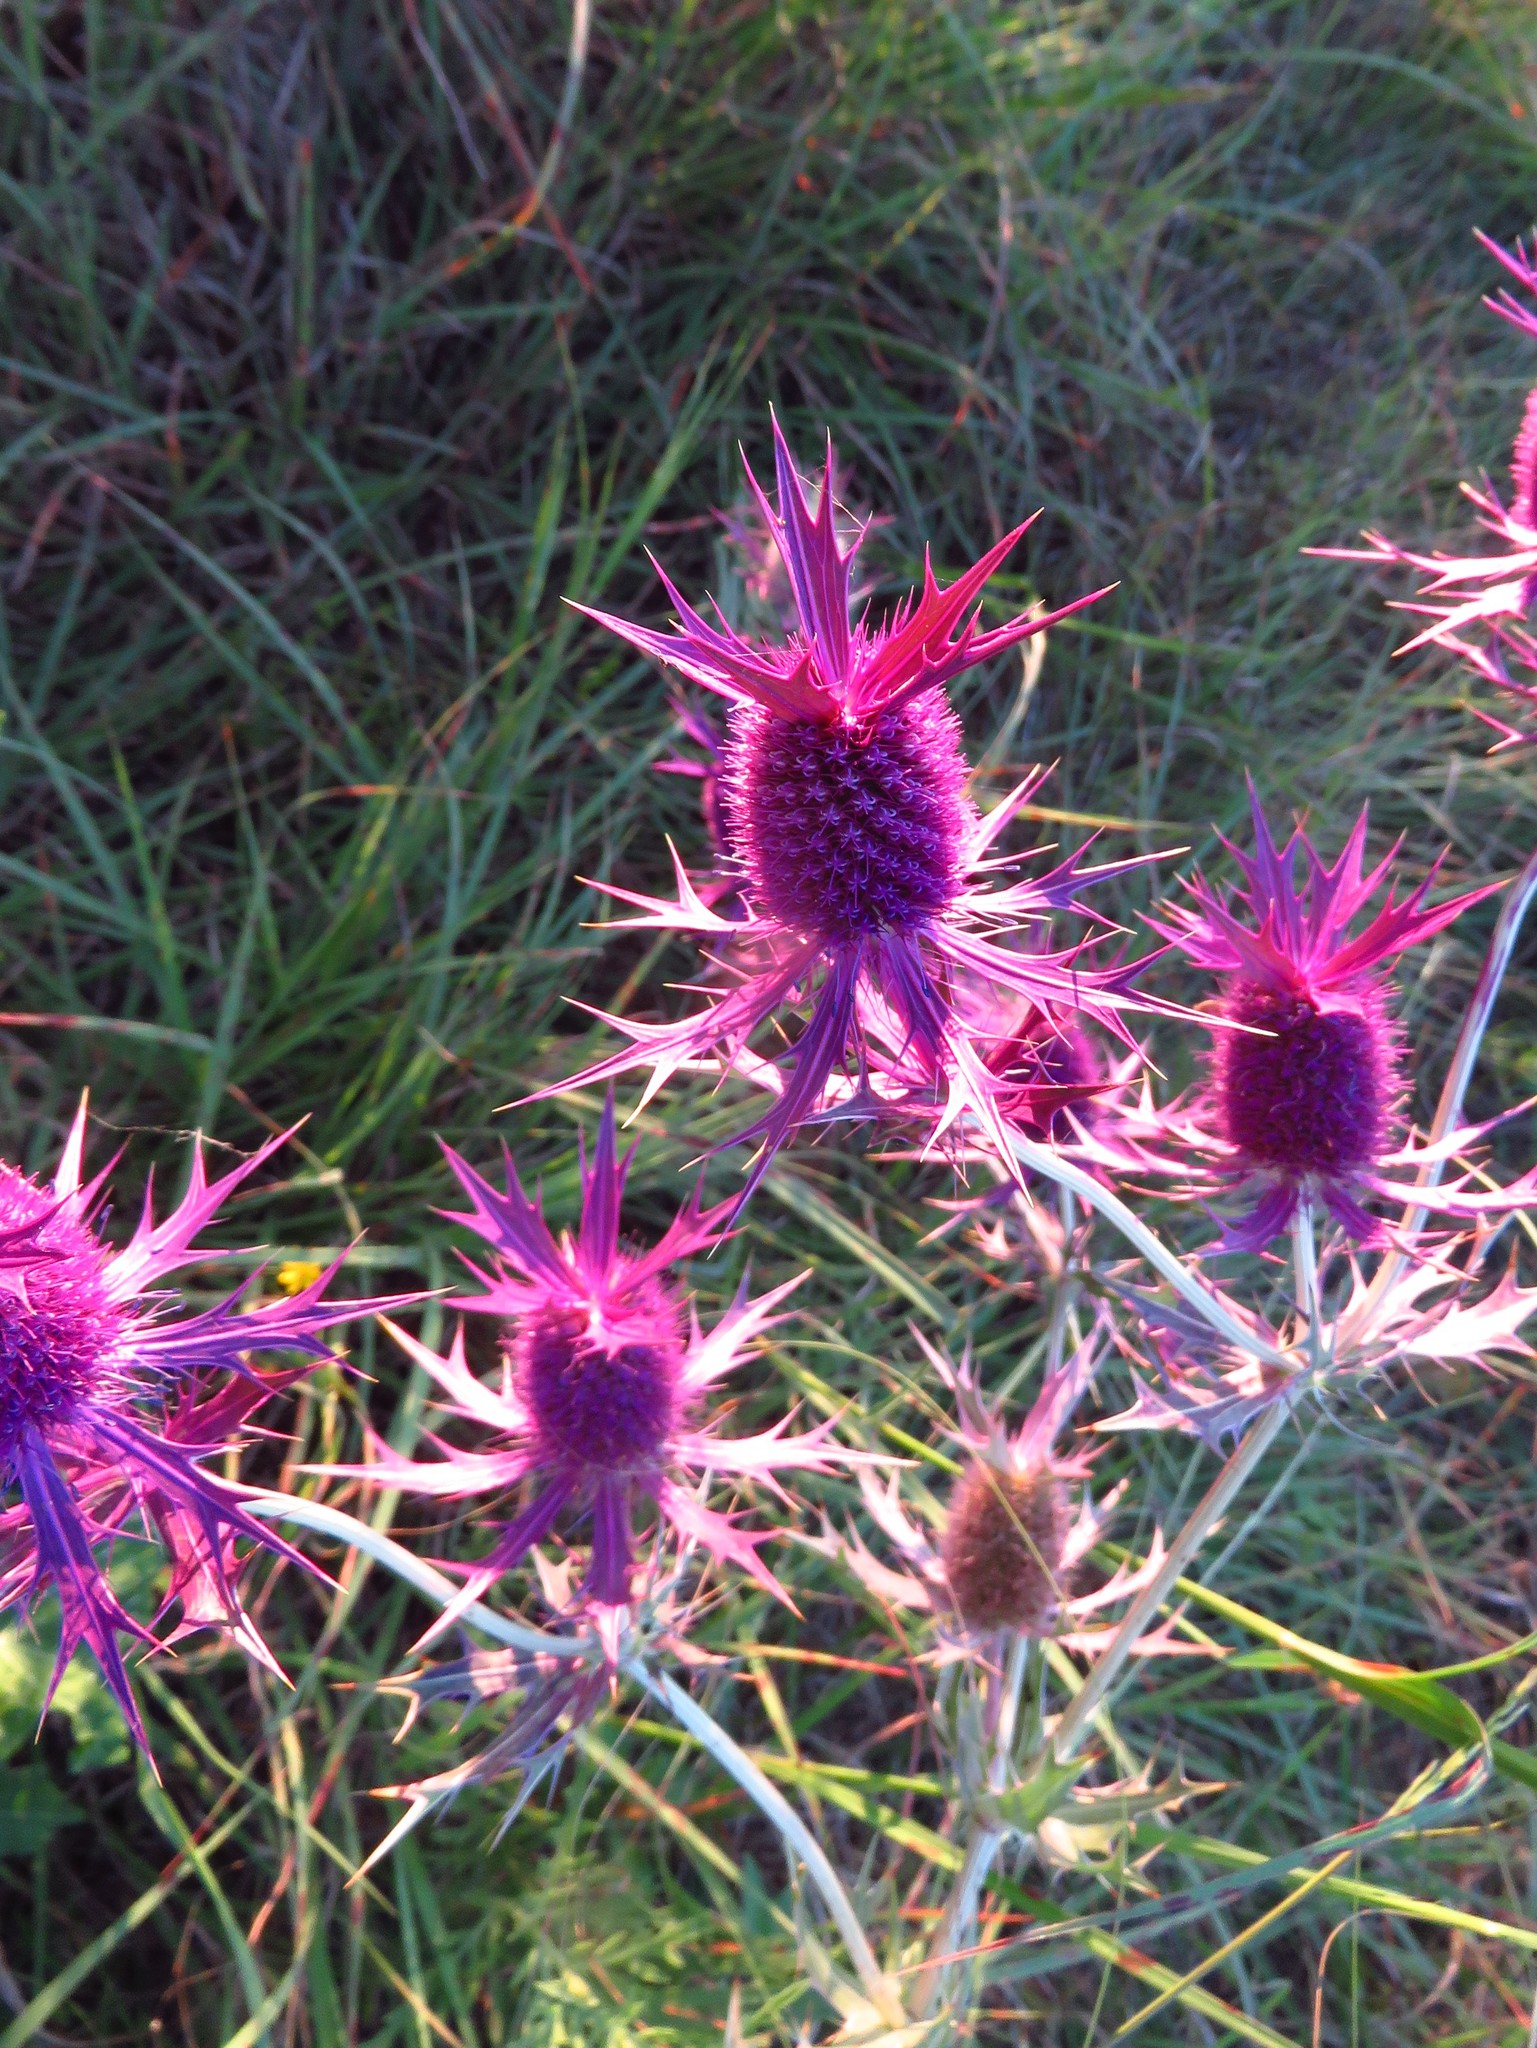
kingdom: Plantae
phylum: Tracheophyta
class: Magnoliopsida
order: Apiales
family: Apiaceae
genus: Eryngium
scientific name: Eryngium leavenworthii
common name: Leavenworth's eryngo
